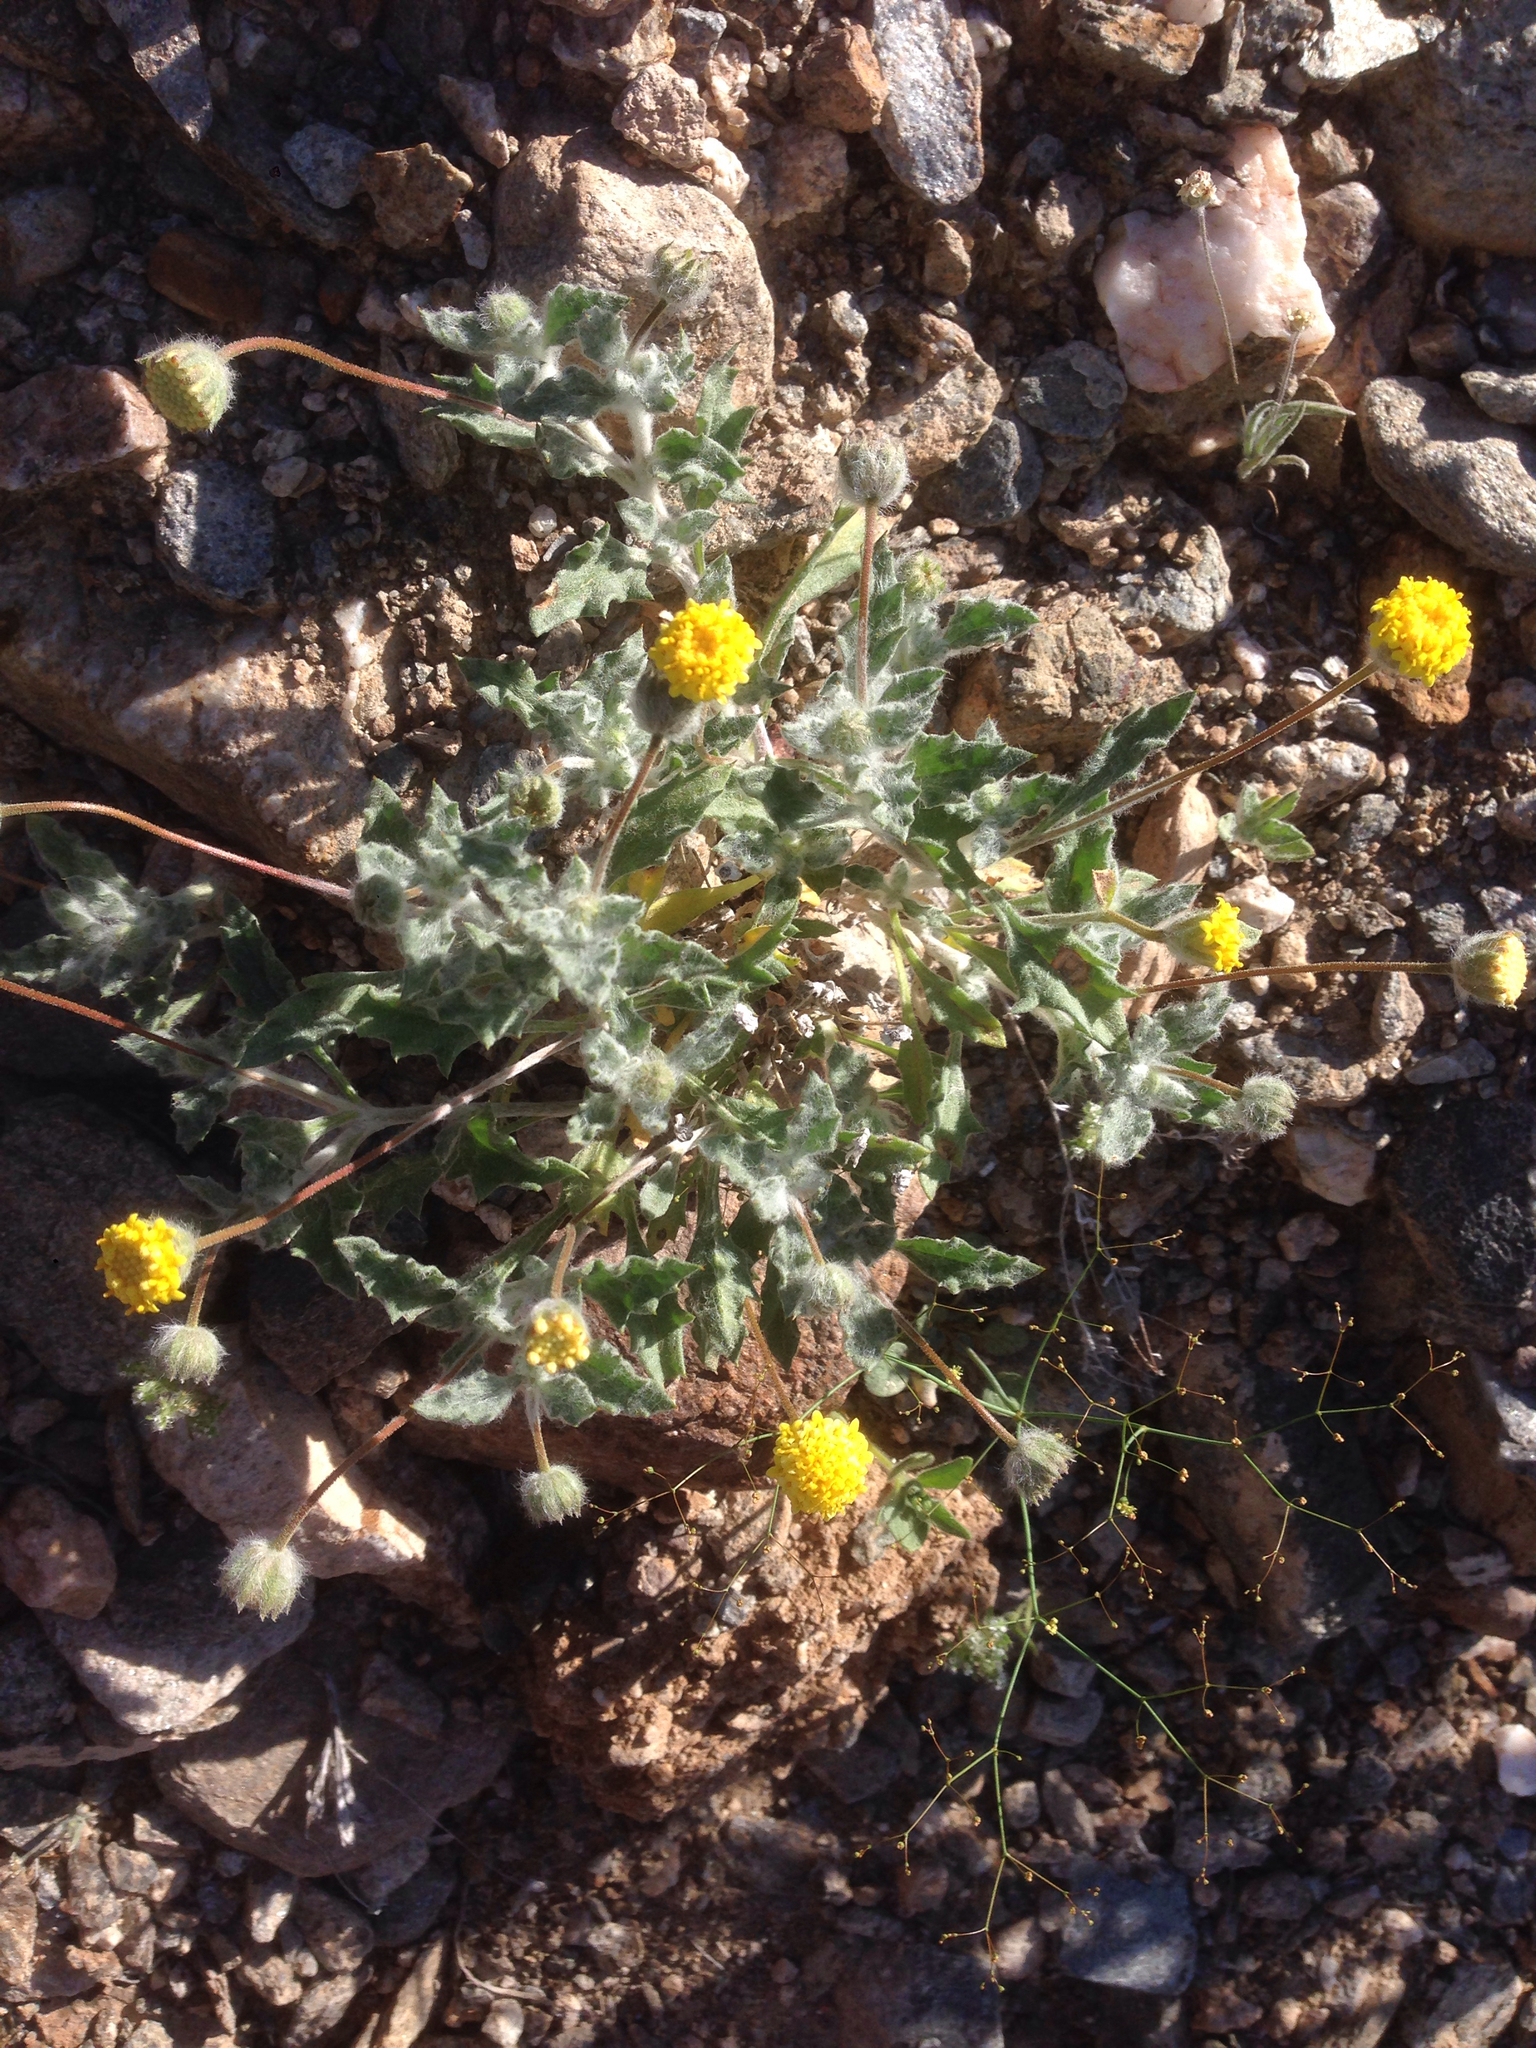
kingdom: Plantae
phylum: Tracheophyta
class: Magnoliopsida
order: Asterales
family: Asteraceae
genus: Trichoptilium
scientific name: Trichoptilium incisum
